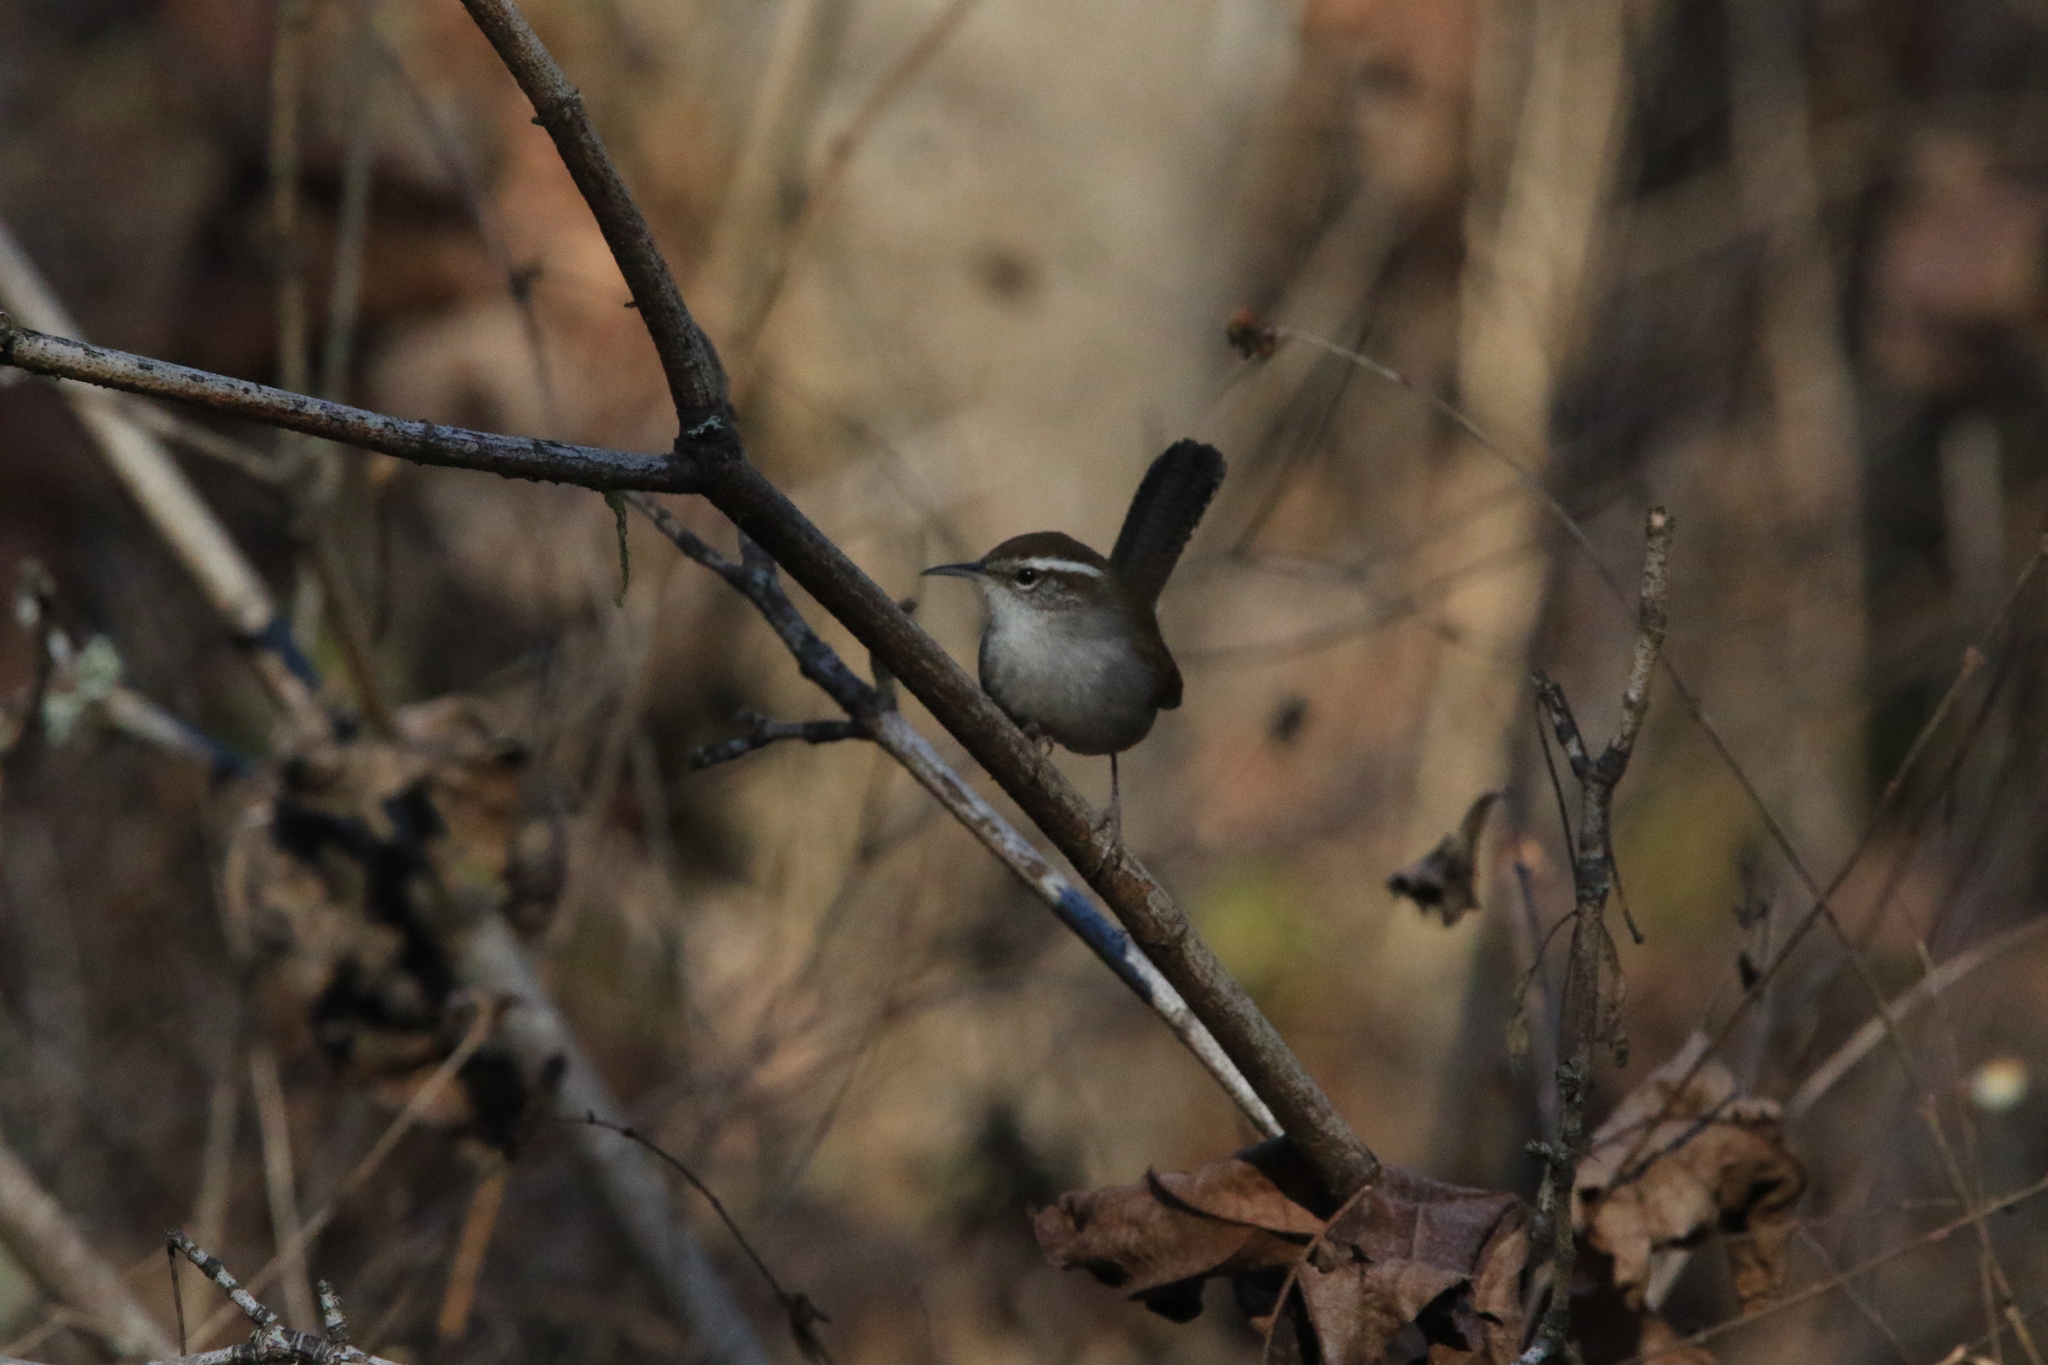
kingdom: Animalia
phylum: Chordata
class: Aves
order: Passeriformes
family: Troglodytidae
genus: Thryomanes
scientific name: Thryomanes bewickii
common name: Bewick's wren
